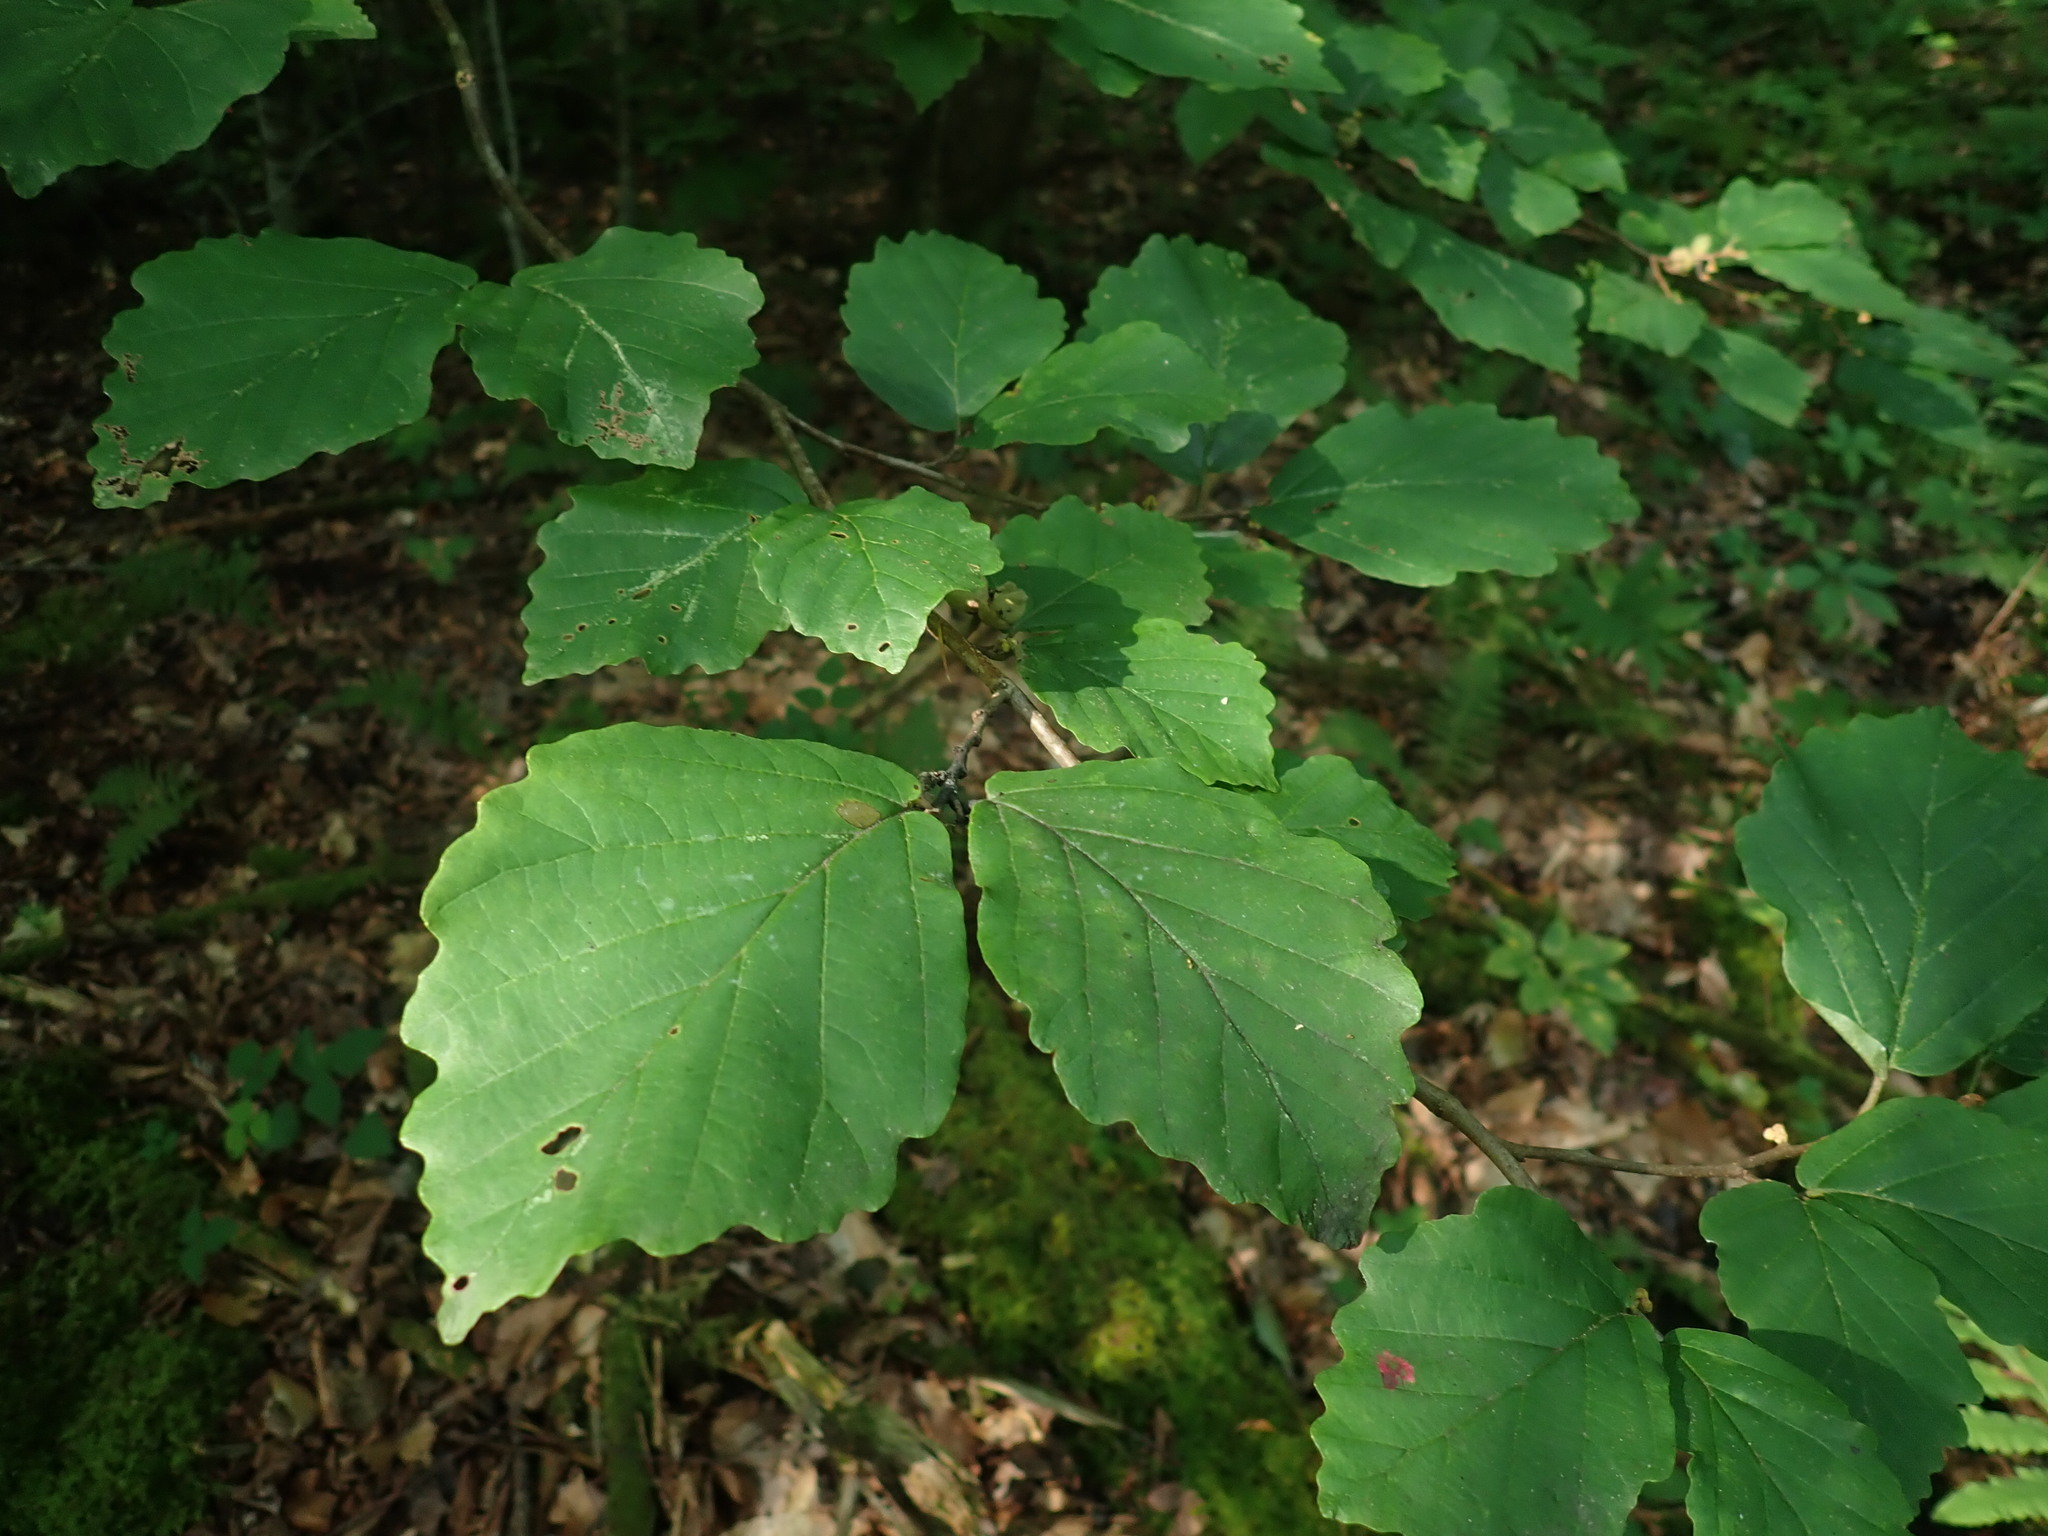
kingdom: Plantae
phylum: Tracheophyta
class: Magnoliopsida
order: Saxifragales
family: Hamamelidaceae
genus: Hamamelis
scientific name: Hamamelis virginiana
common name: Witch-hazel
